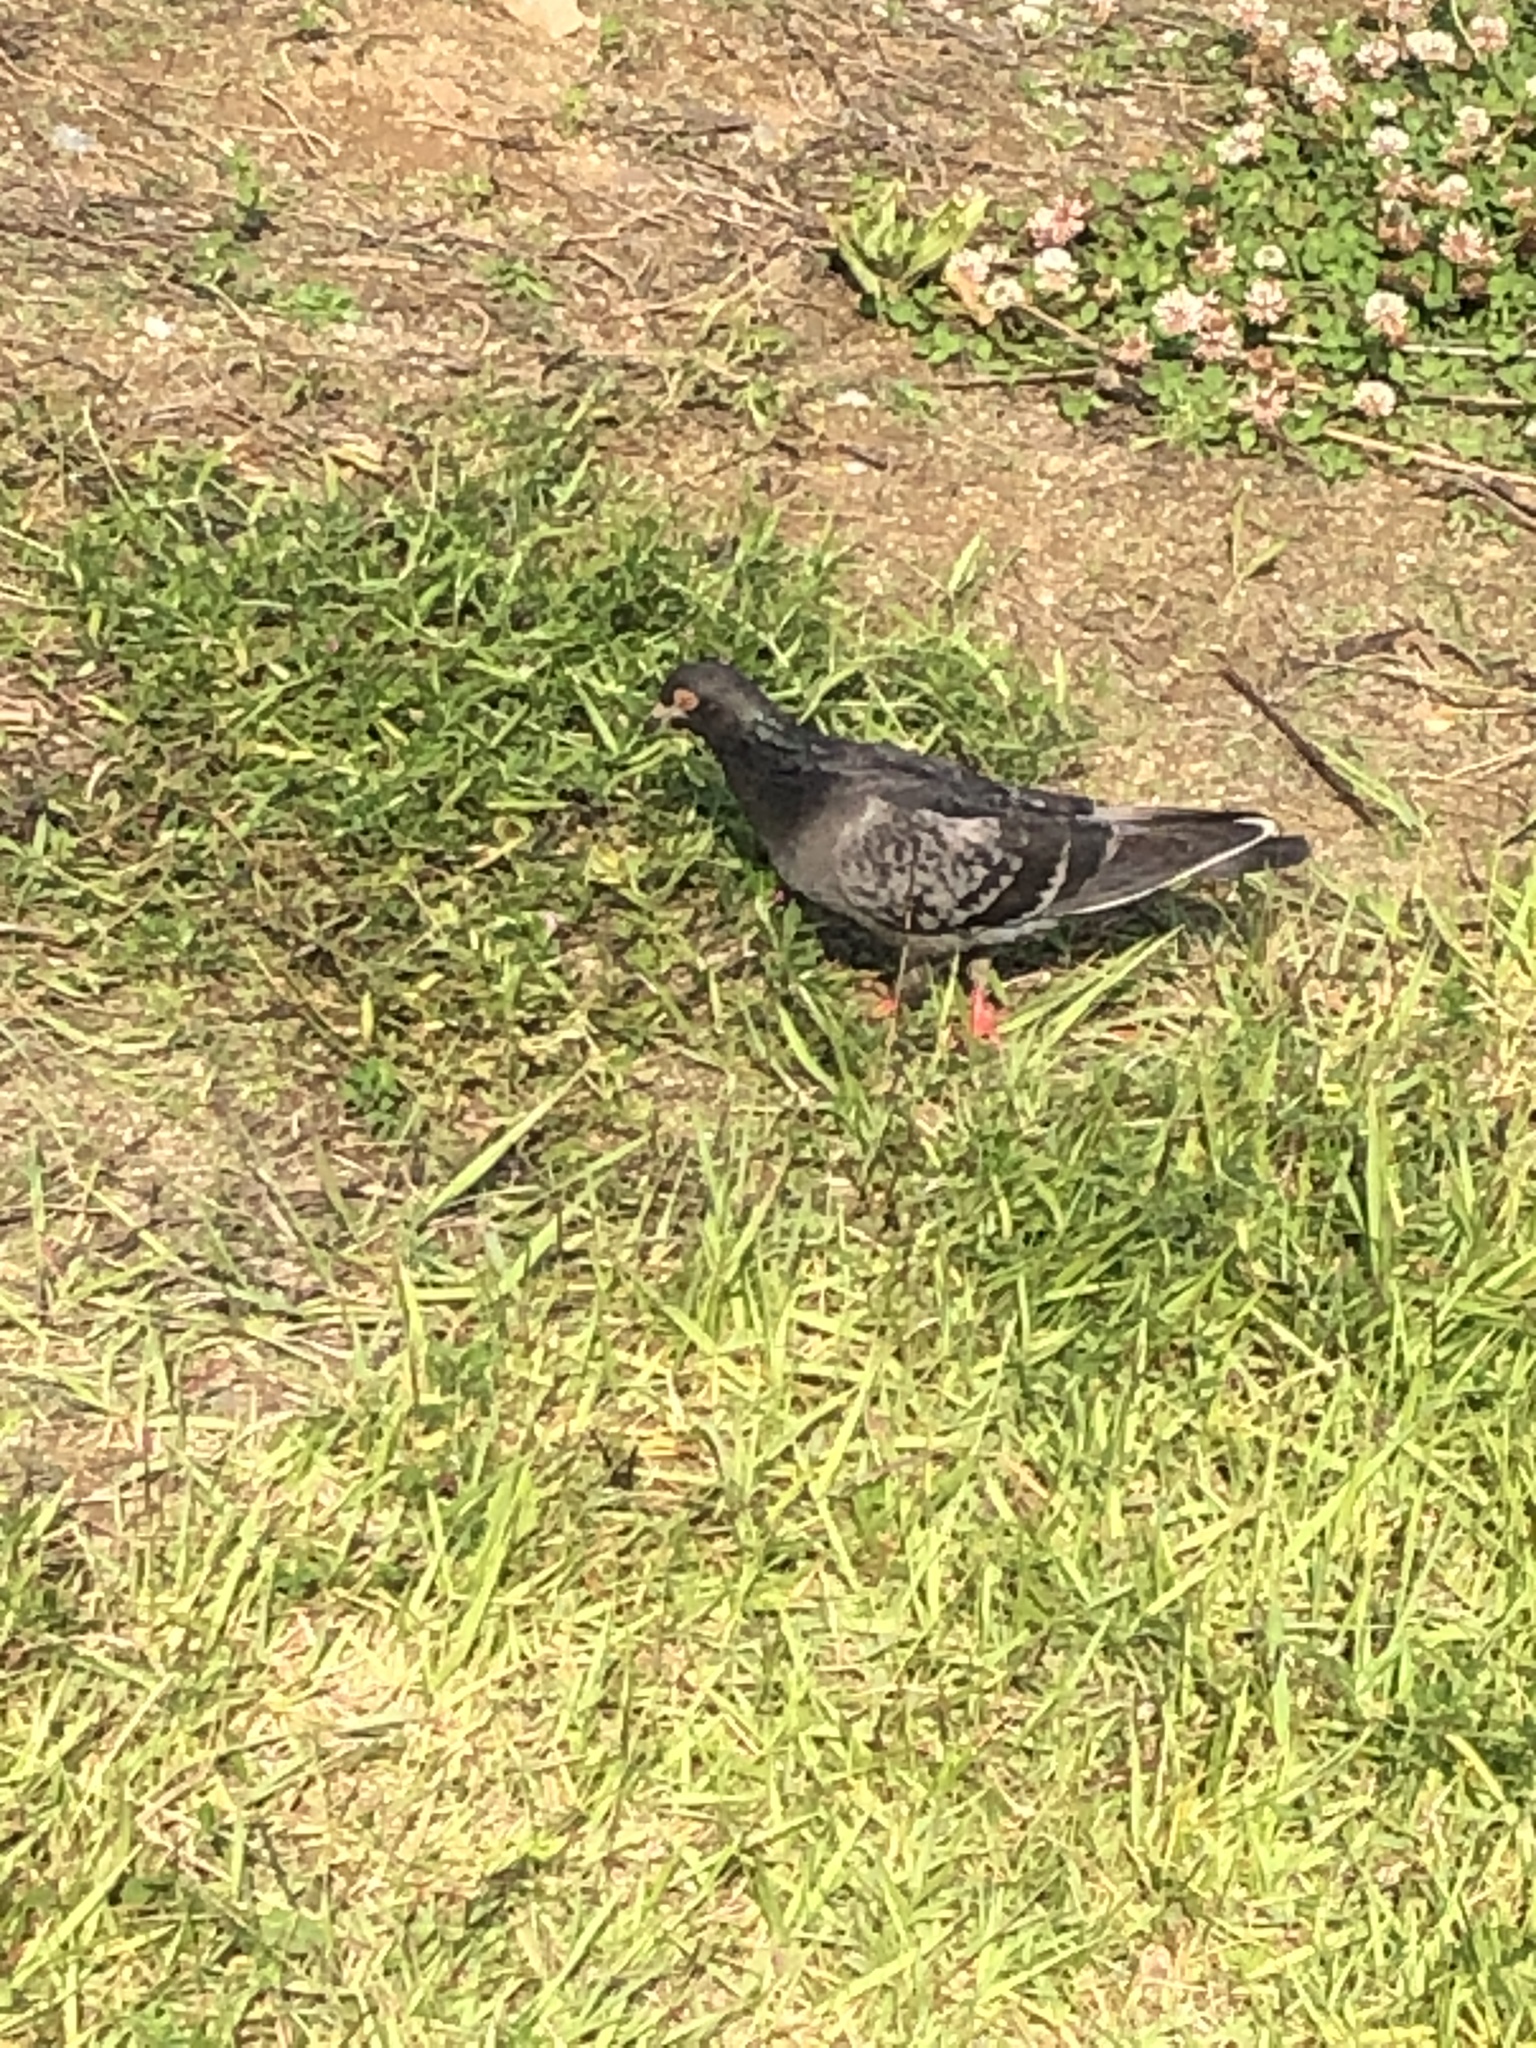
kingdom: Animalia
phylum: Chordata
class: Aves
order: Columbiformes
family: Columbidae
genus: Columba
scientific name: Columba livia
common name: Rock pigeon
